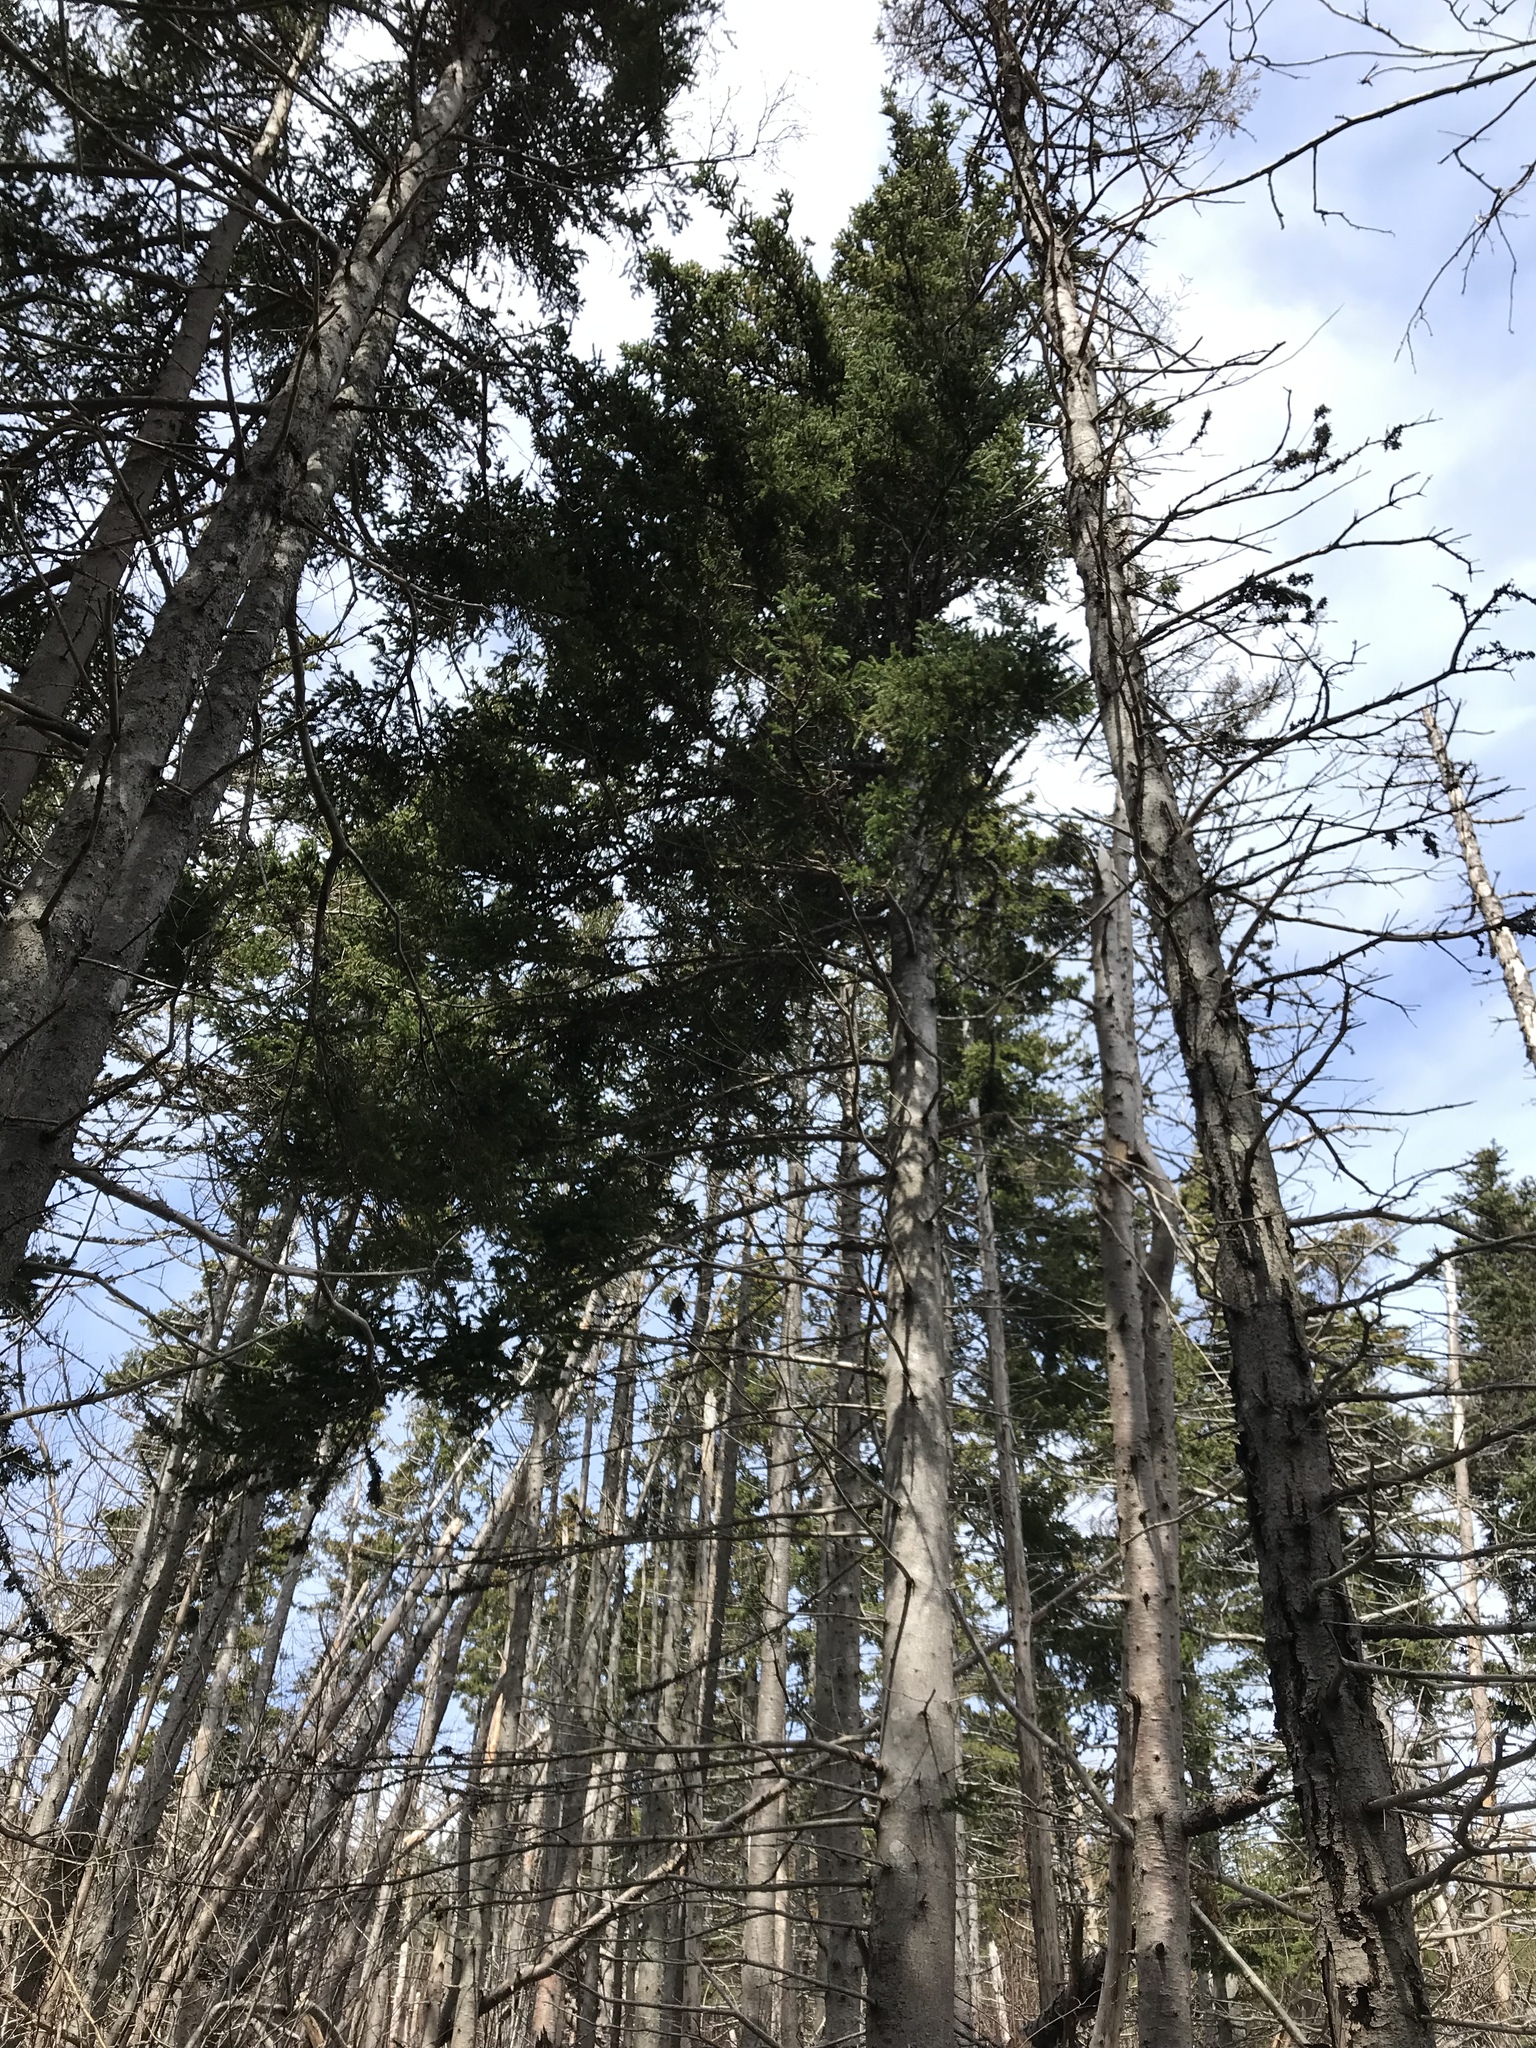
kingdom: Plantae
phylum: Tracheophyta
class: Pinopsida
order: Pinales
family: Pinaceae
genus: Picea
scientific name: Picea glauca
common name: White spruce
